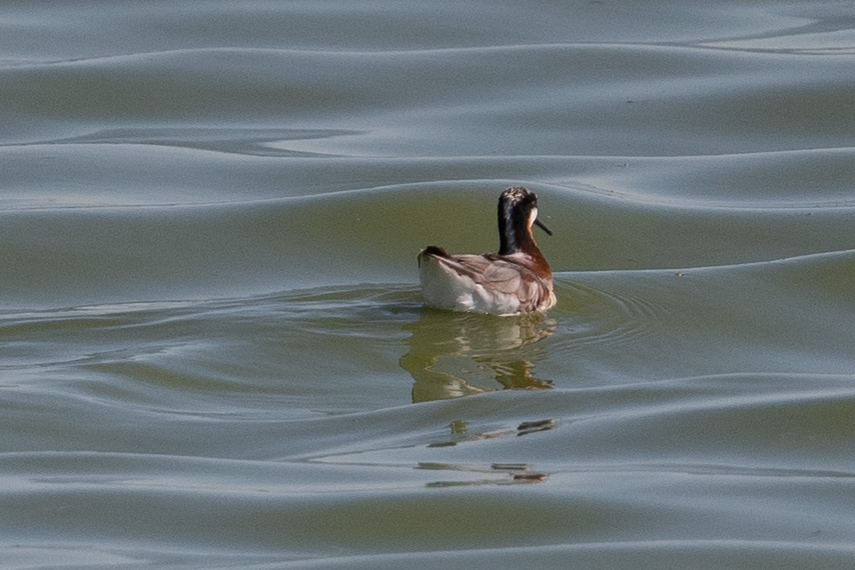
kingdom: Animalia
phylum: Chordata
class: Aves
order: Charadriiformes
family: Scolopacidae
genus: Phalaropus
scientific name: Phalaropus tricolor
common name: Wilson's phalarope
